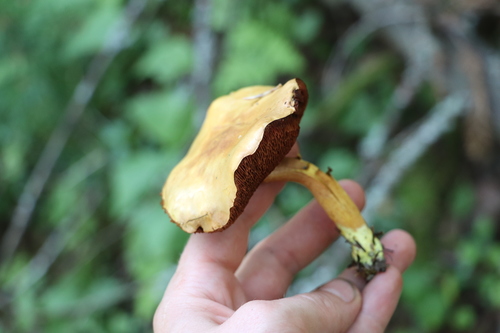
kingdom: Fungi
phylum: Basidiomycota
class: Agaricomycetes
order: Boletales
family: Boletaceae
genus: Chalciporus
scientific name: Chalciporus piperatus
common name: Peppery bolete
